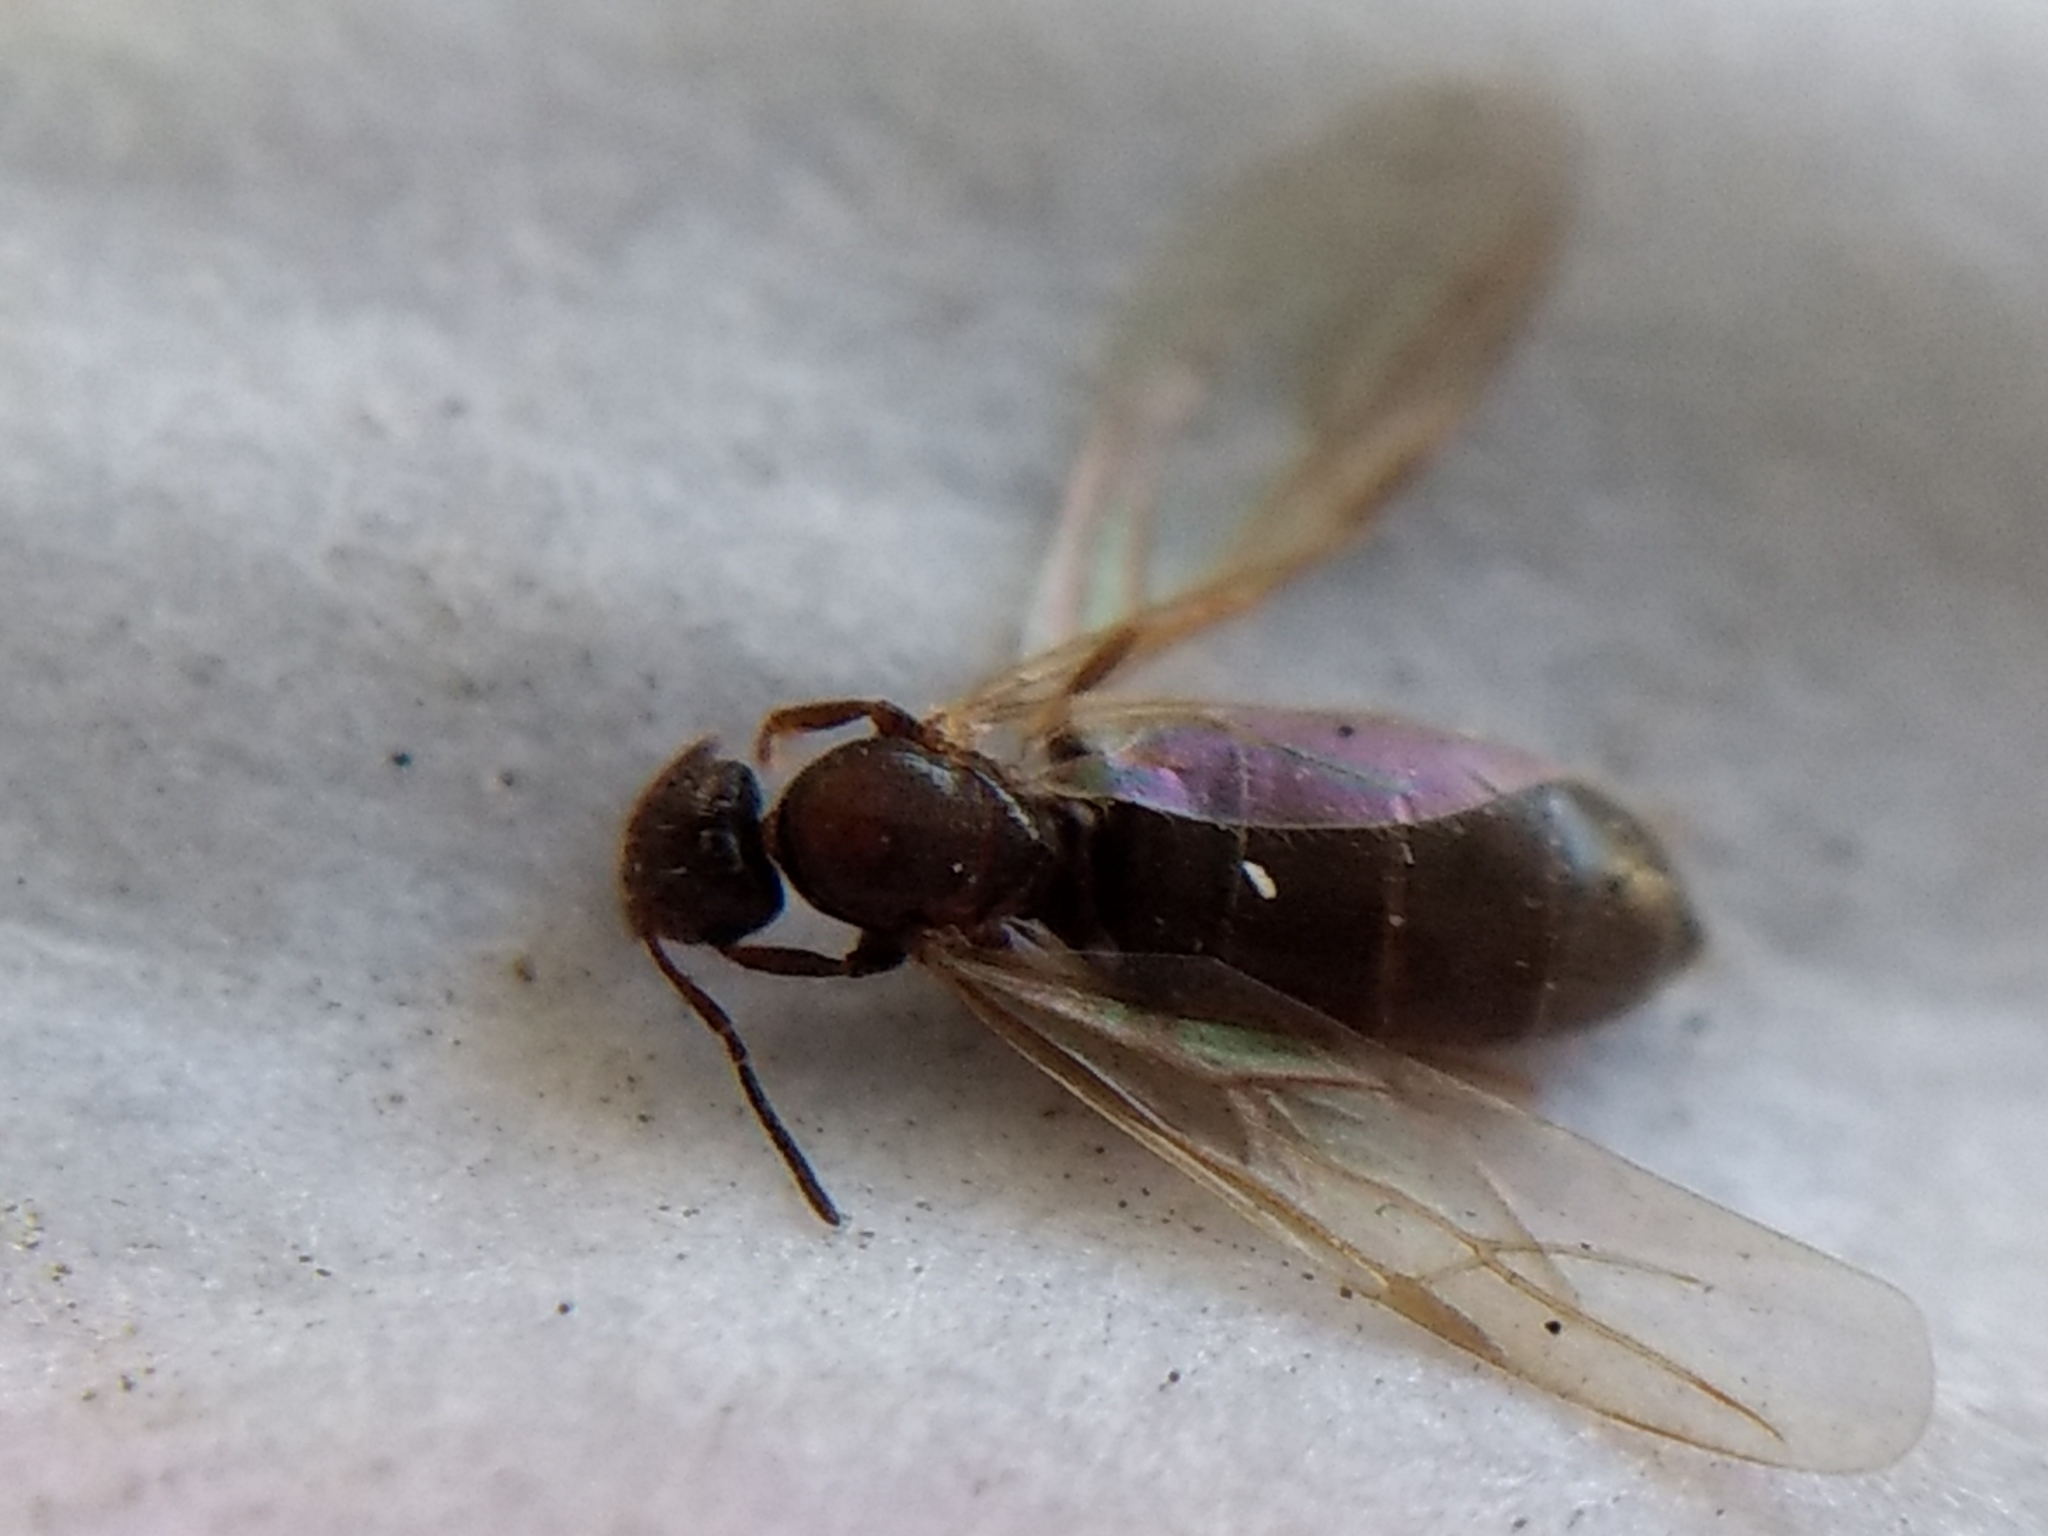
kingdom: Animalia
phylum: Arthropoda
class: Insecta
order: Hymenoptera
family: Formicidae
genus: Brachymyrmex
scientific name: Brachymyrmex patagonicus
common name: Dark rover ant
